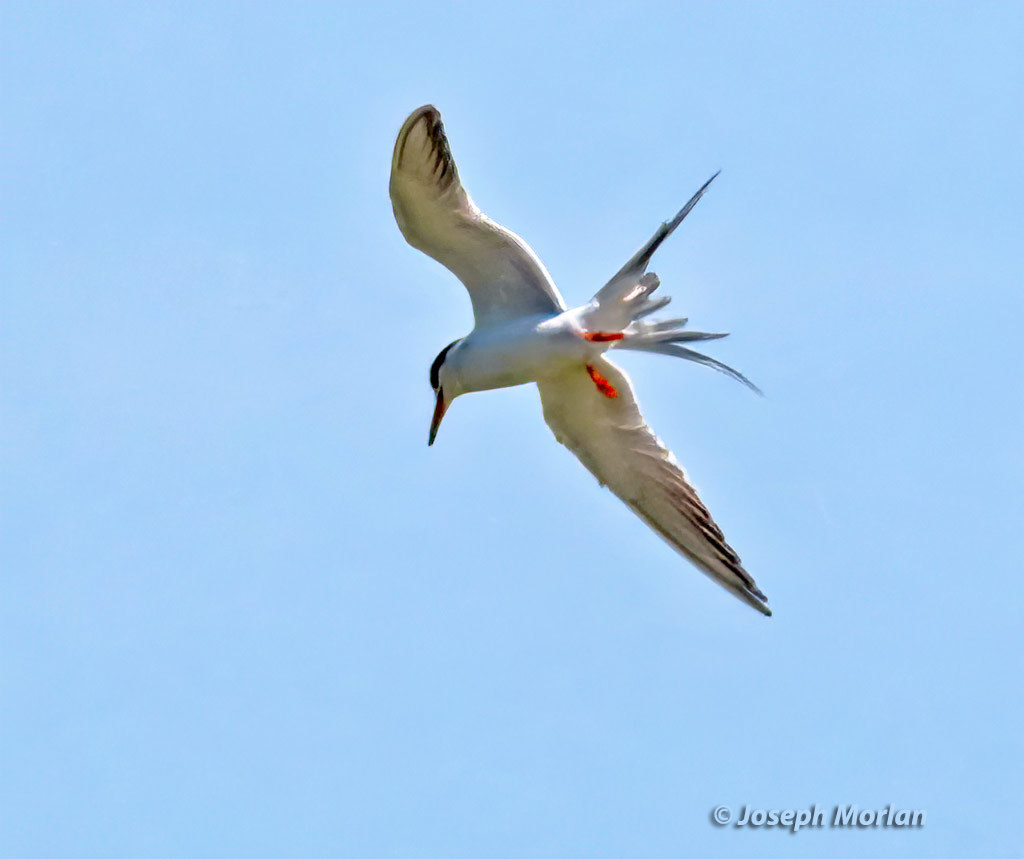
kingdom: Animalia
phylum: Chordata
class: Aves
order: Charadriiformes
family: Laridae
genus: Sterna
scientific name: Sterna forsteri
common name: Forster's tern
